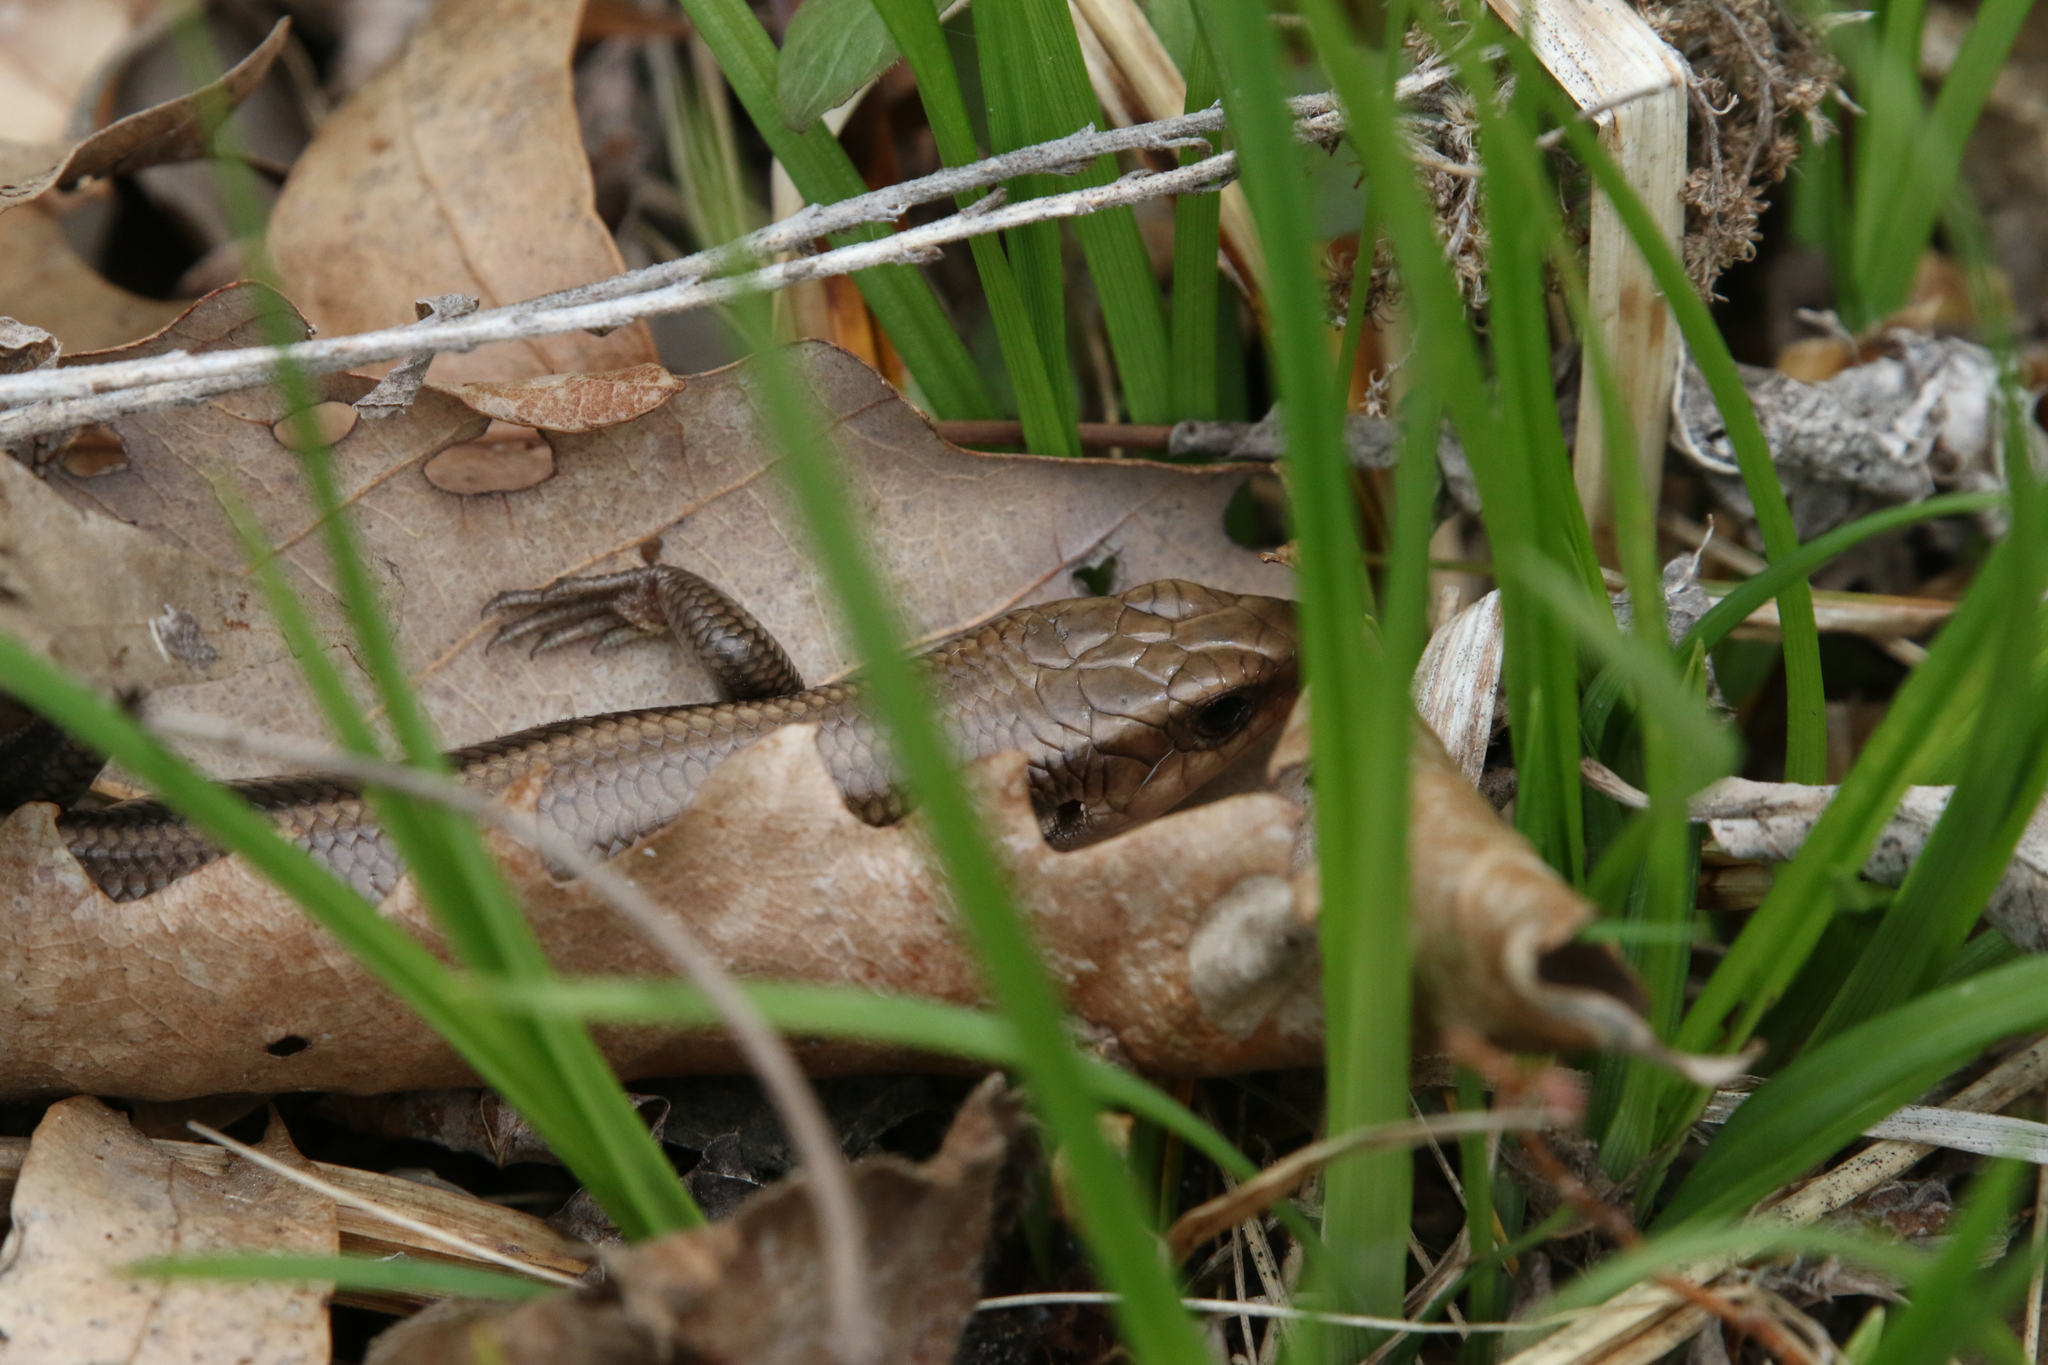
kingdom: Animalia
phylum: Chordata
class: Squamata
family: Scincidae
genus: Plestiodon
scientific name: Plestiodon fasciatus
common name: Five-lined skink
